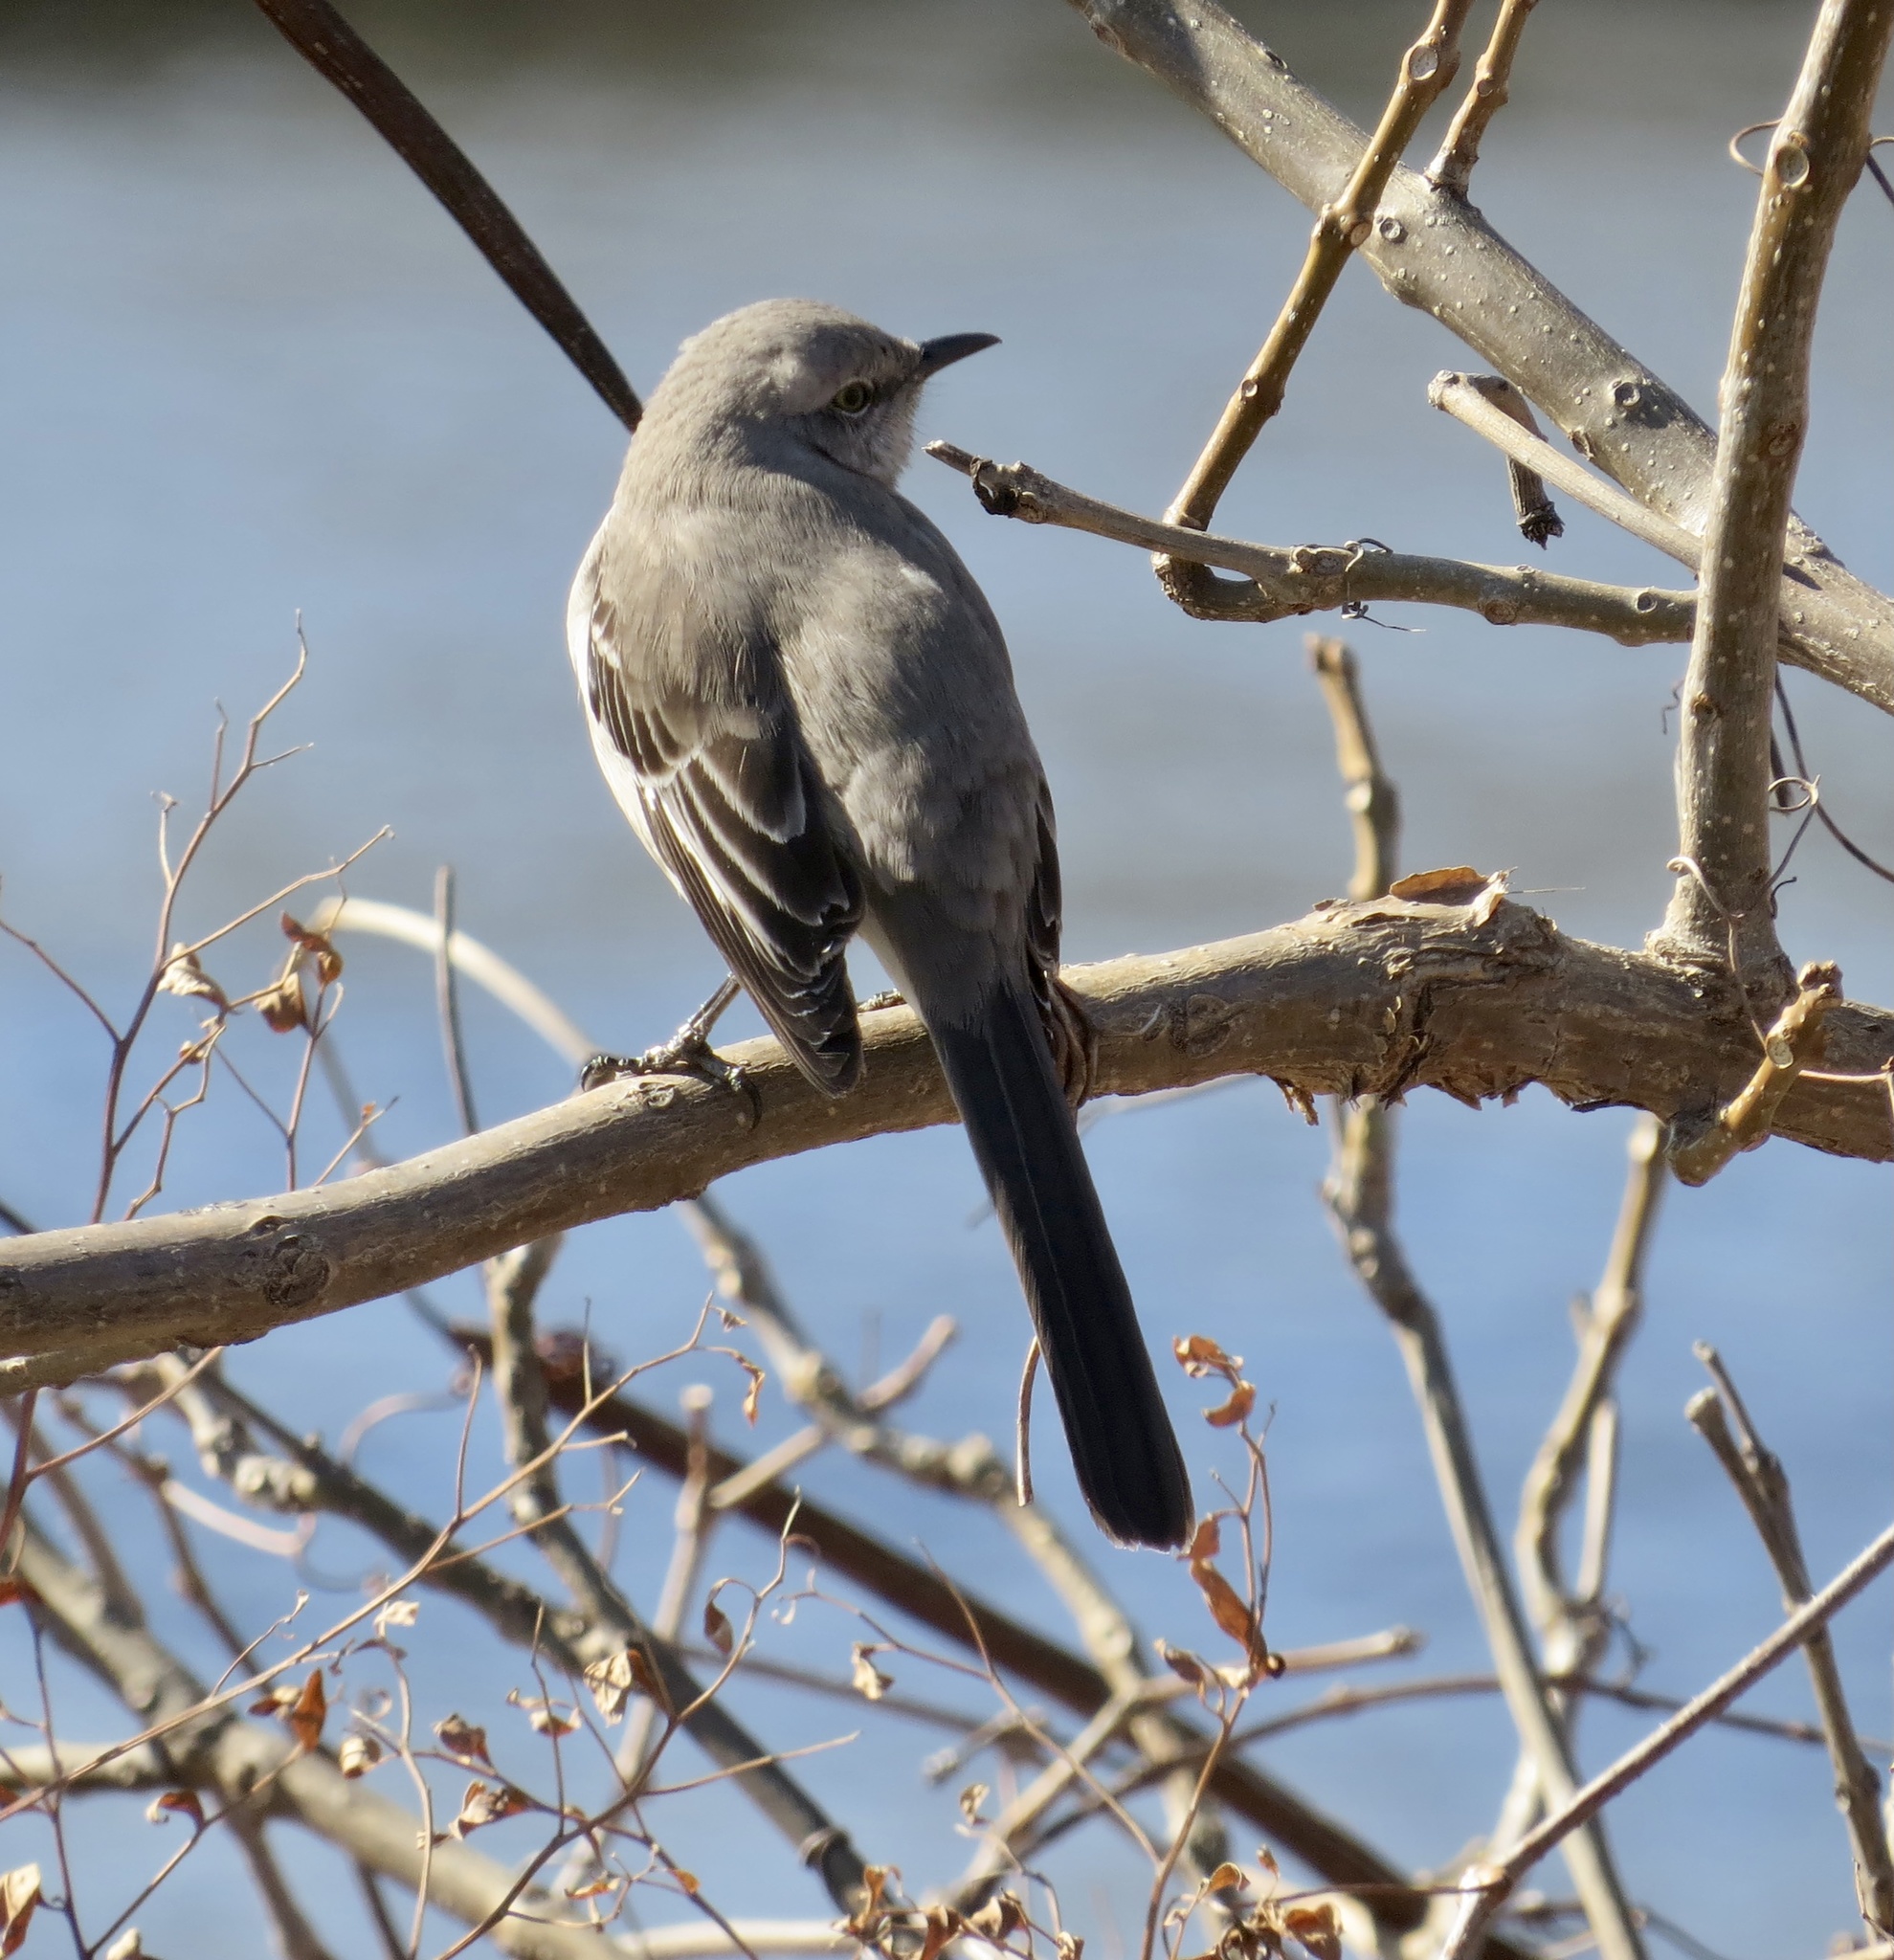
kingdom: Animalia
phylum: Chordata
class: Aves
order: Passeriformes
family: Mimidae
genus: Mimus
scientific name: Mimus polyglottos
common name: Northern mockingbird
